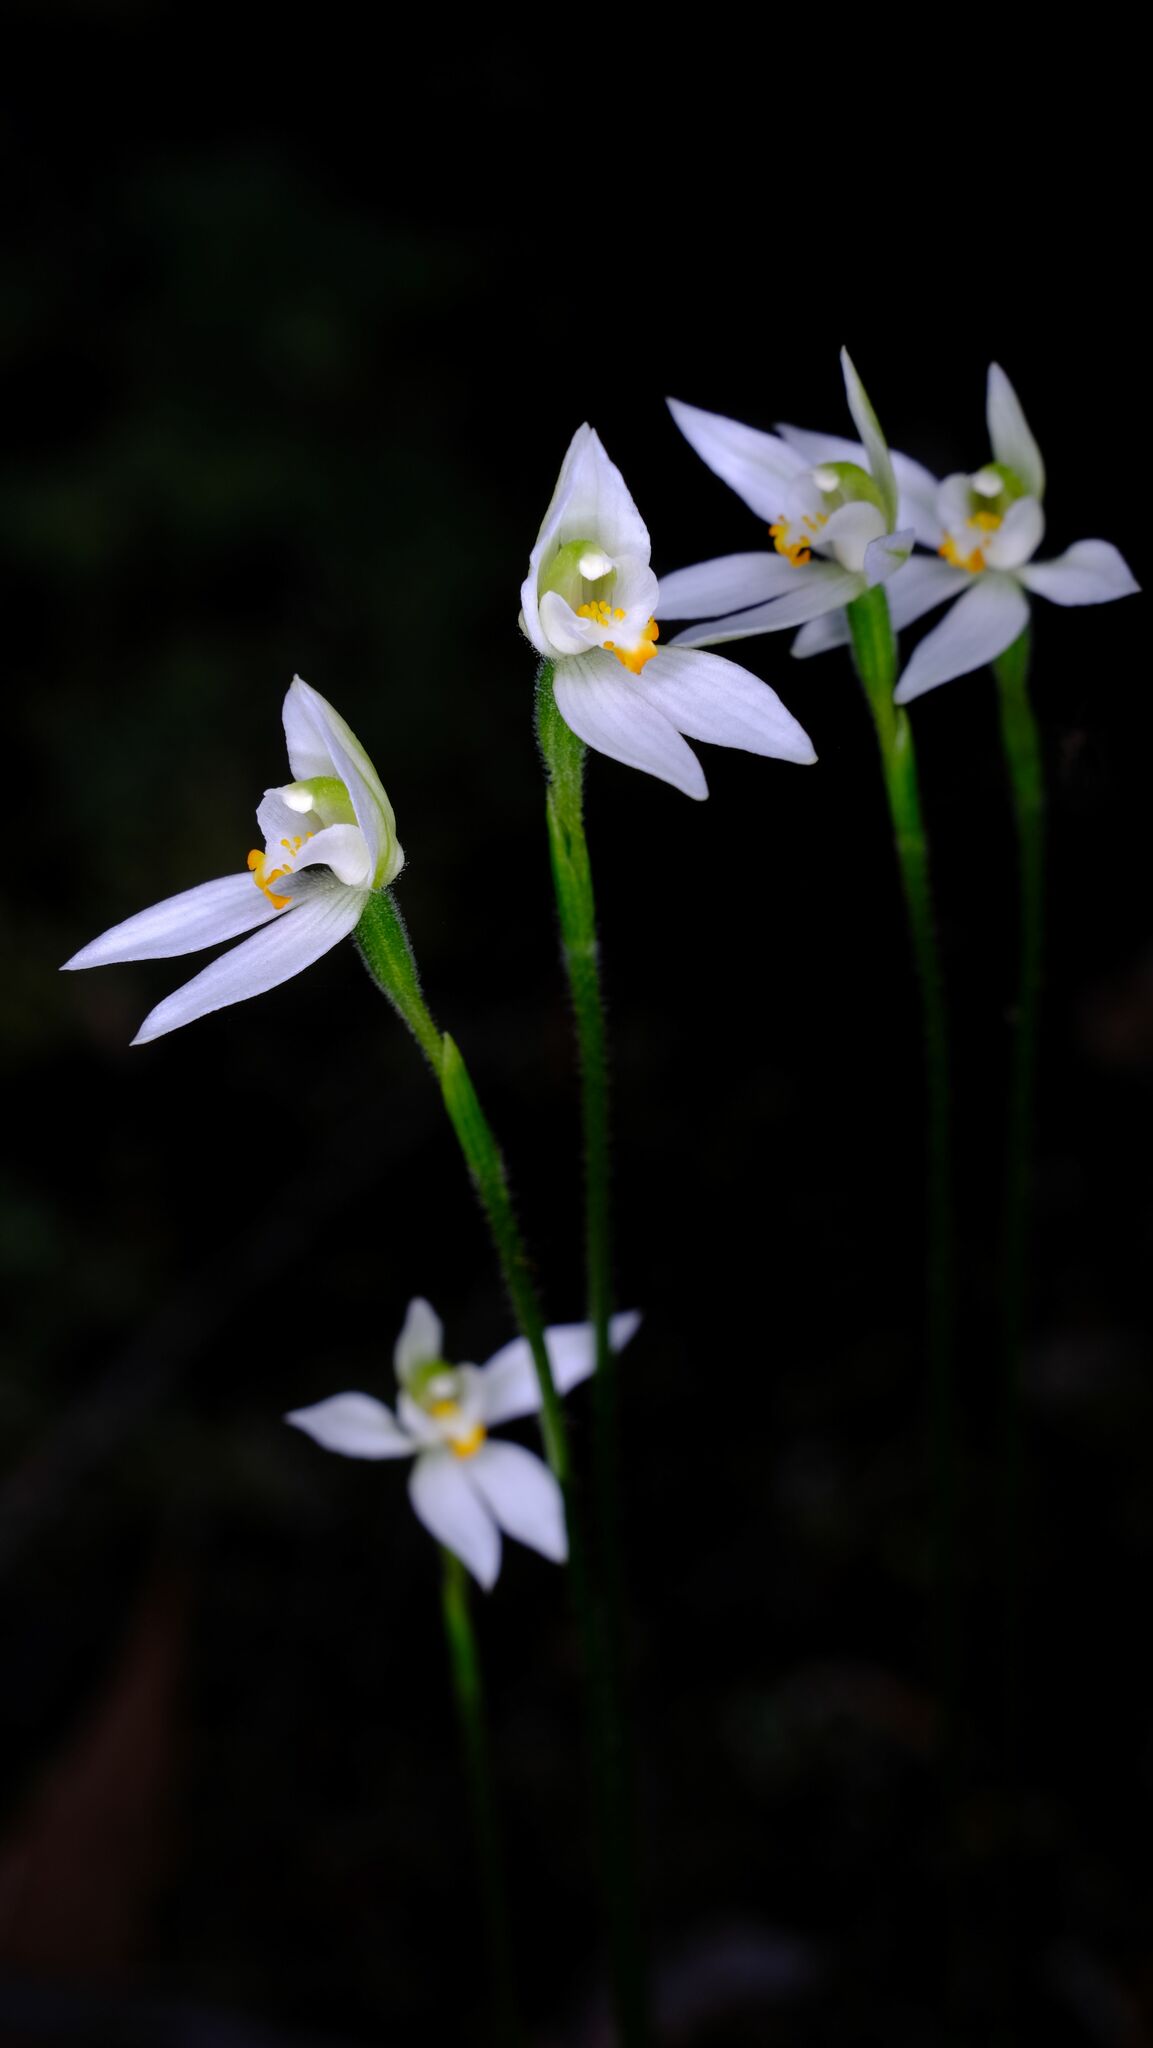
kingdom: Plantae
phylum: Tracheophyta
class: Liliopsida
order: Asparagales
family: Orchidaceae
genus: Caladenia
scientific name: Caladenia aurantiaca
